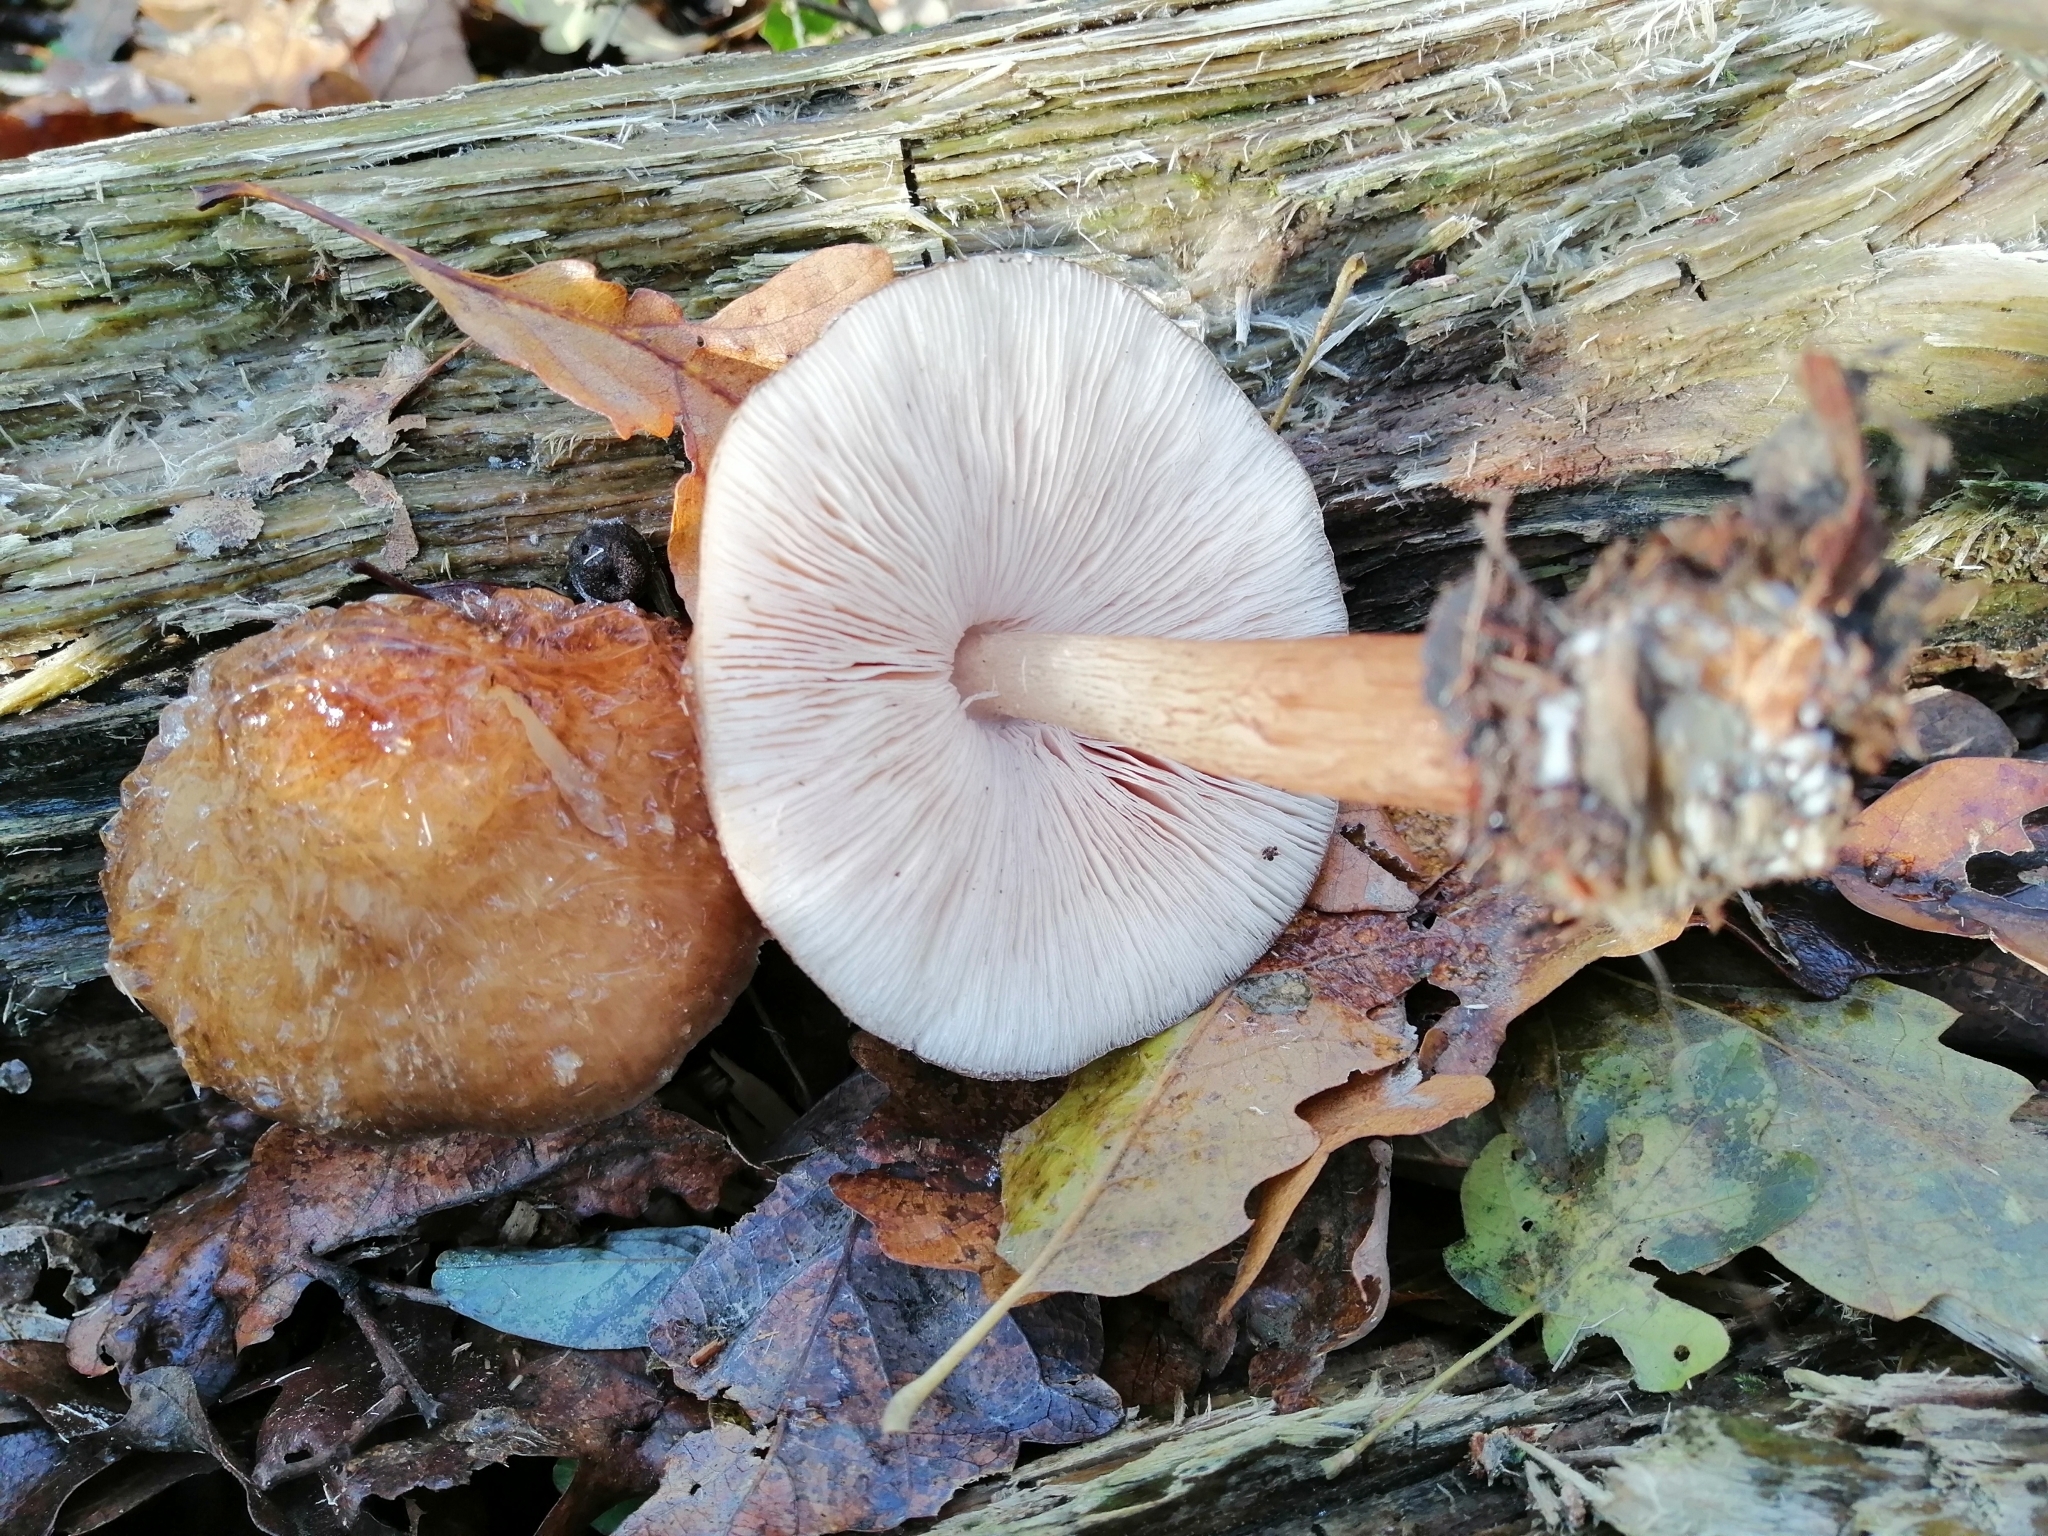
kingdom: Fungi
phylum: Basidiomycota
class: Agaricomycetes
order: Agaricales
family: Pluteaceae
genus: Pluteus
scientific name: Pluteus cervinus
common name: Deer shield
